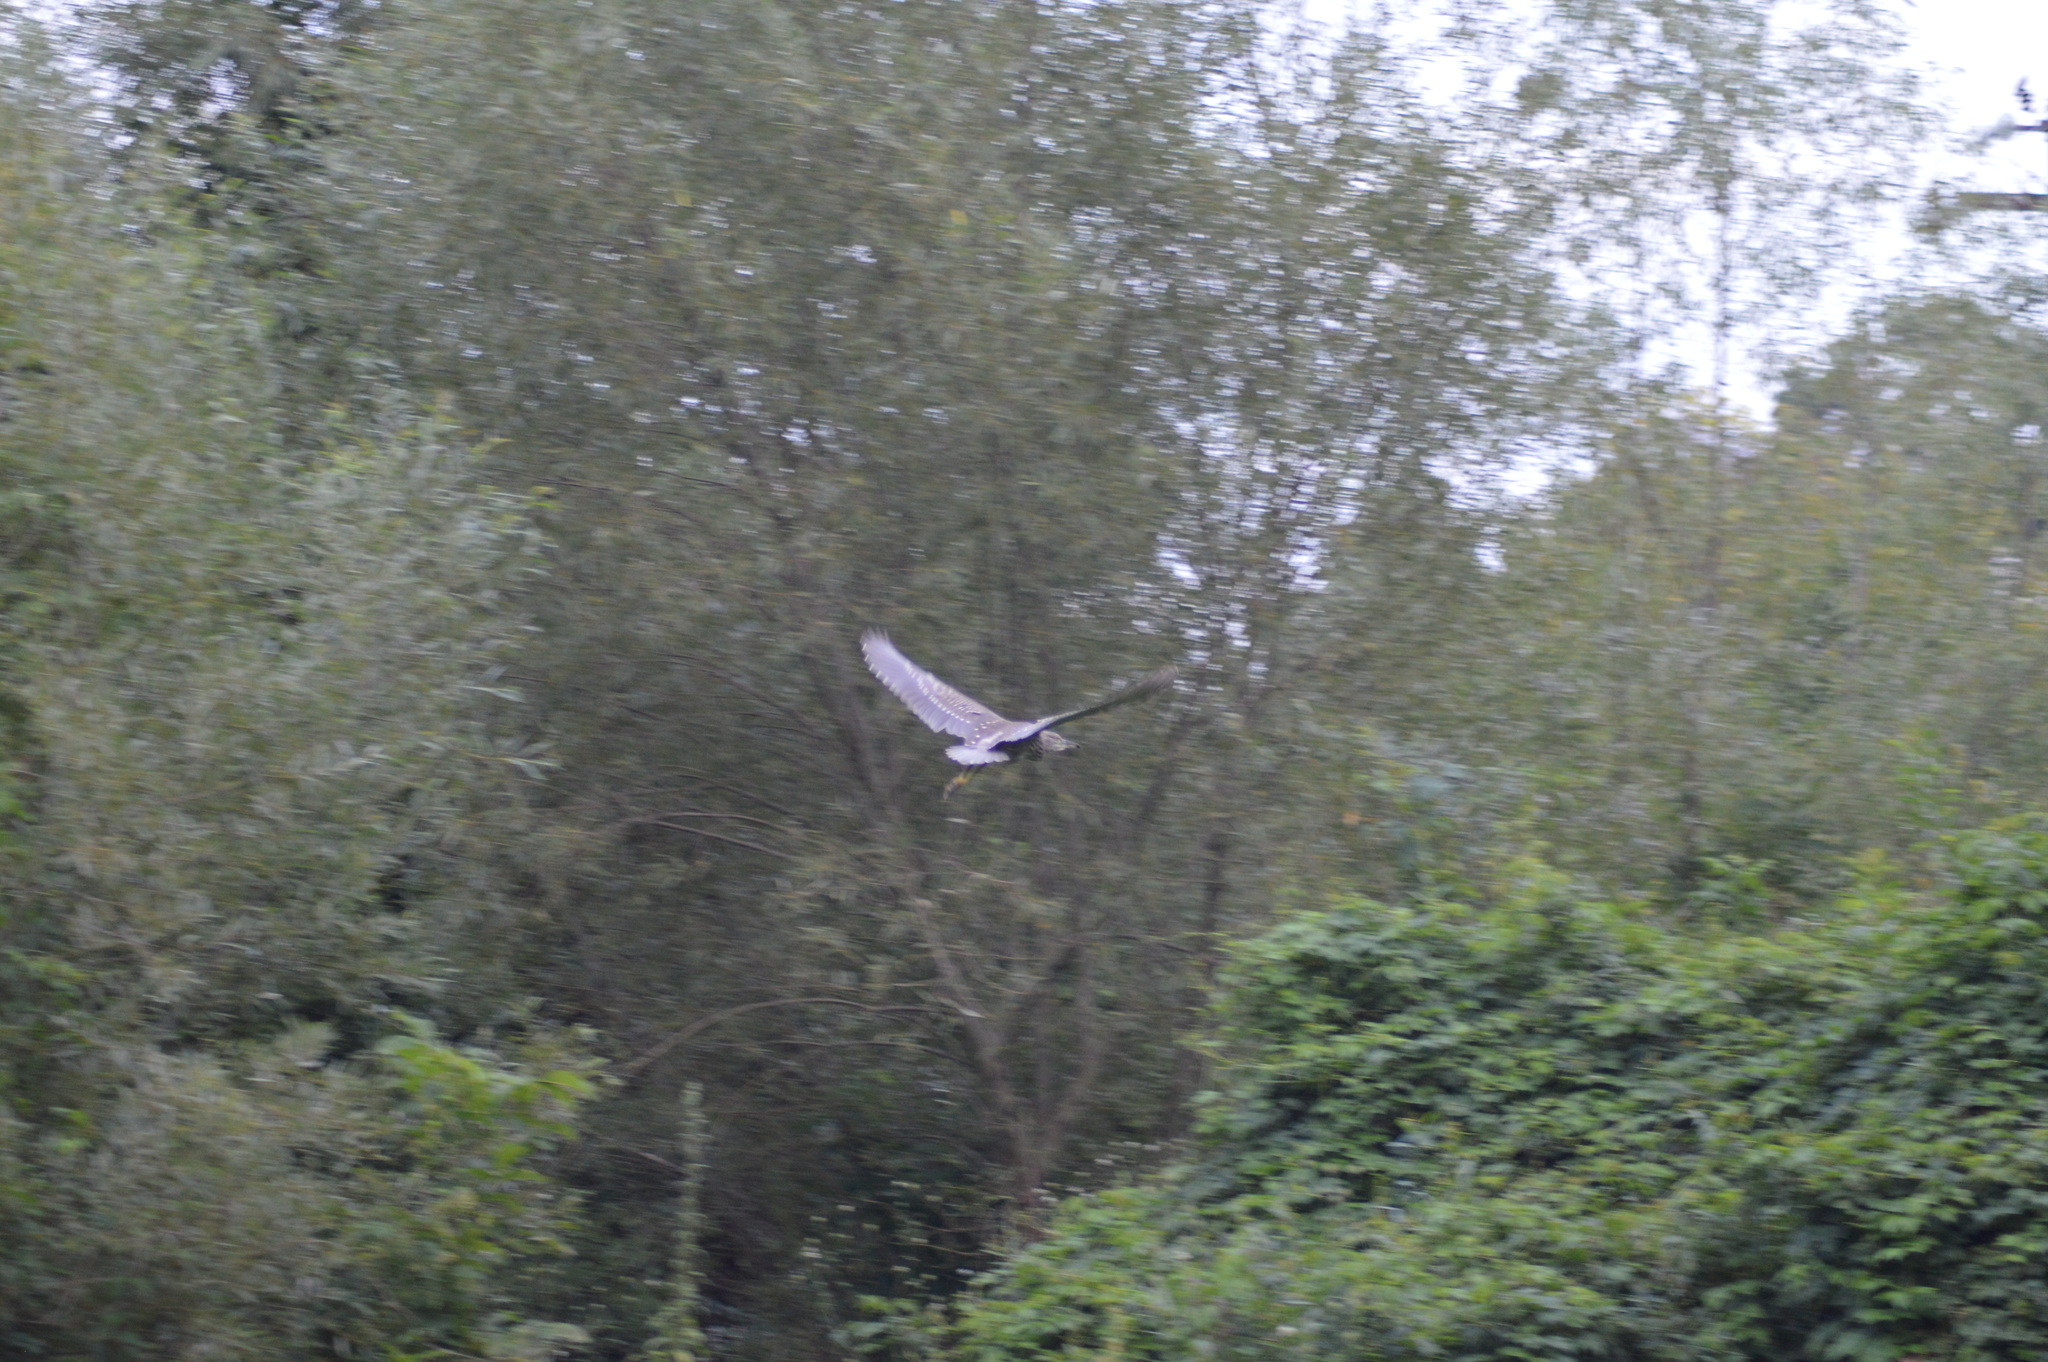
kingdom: Animalia
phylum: Chordata
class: Aves
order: Pelecaniformes
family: Ardeidae
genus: Nycticorax
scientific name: Nycticorax nycticorax
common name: Black-crowned night heron
